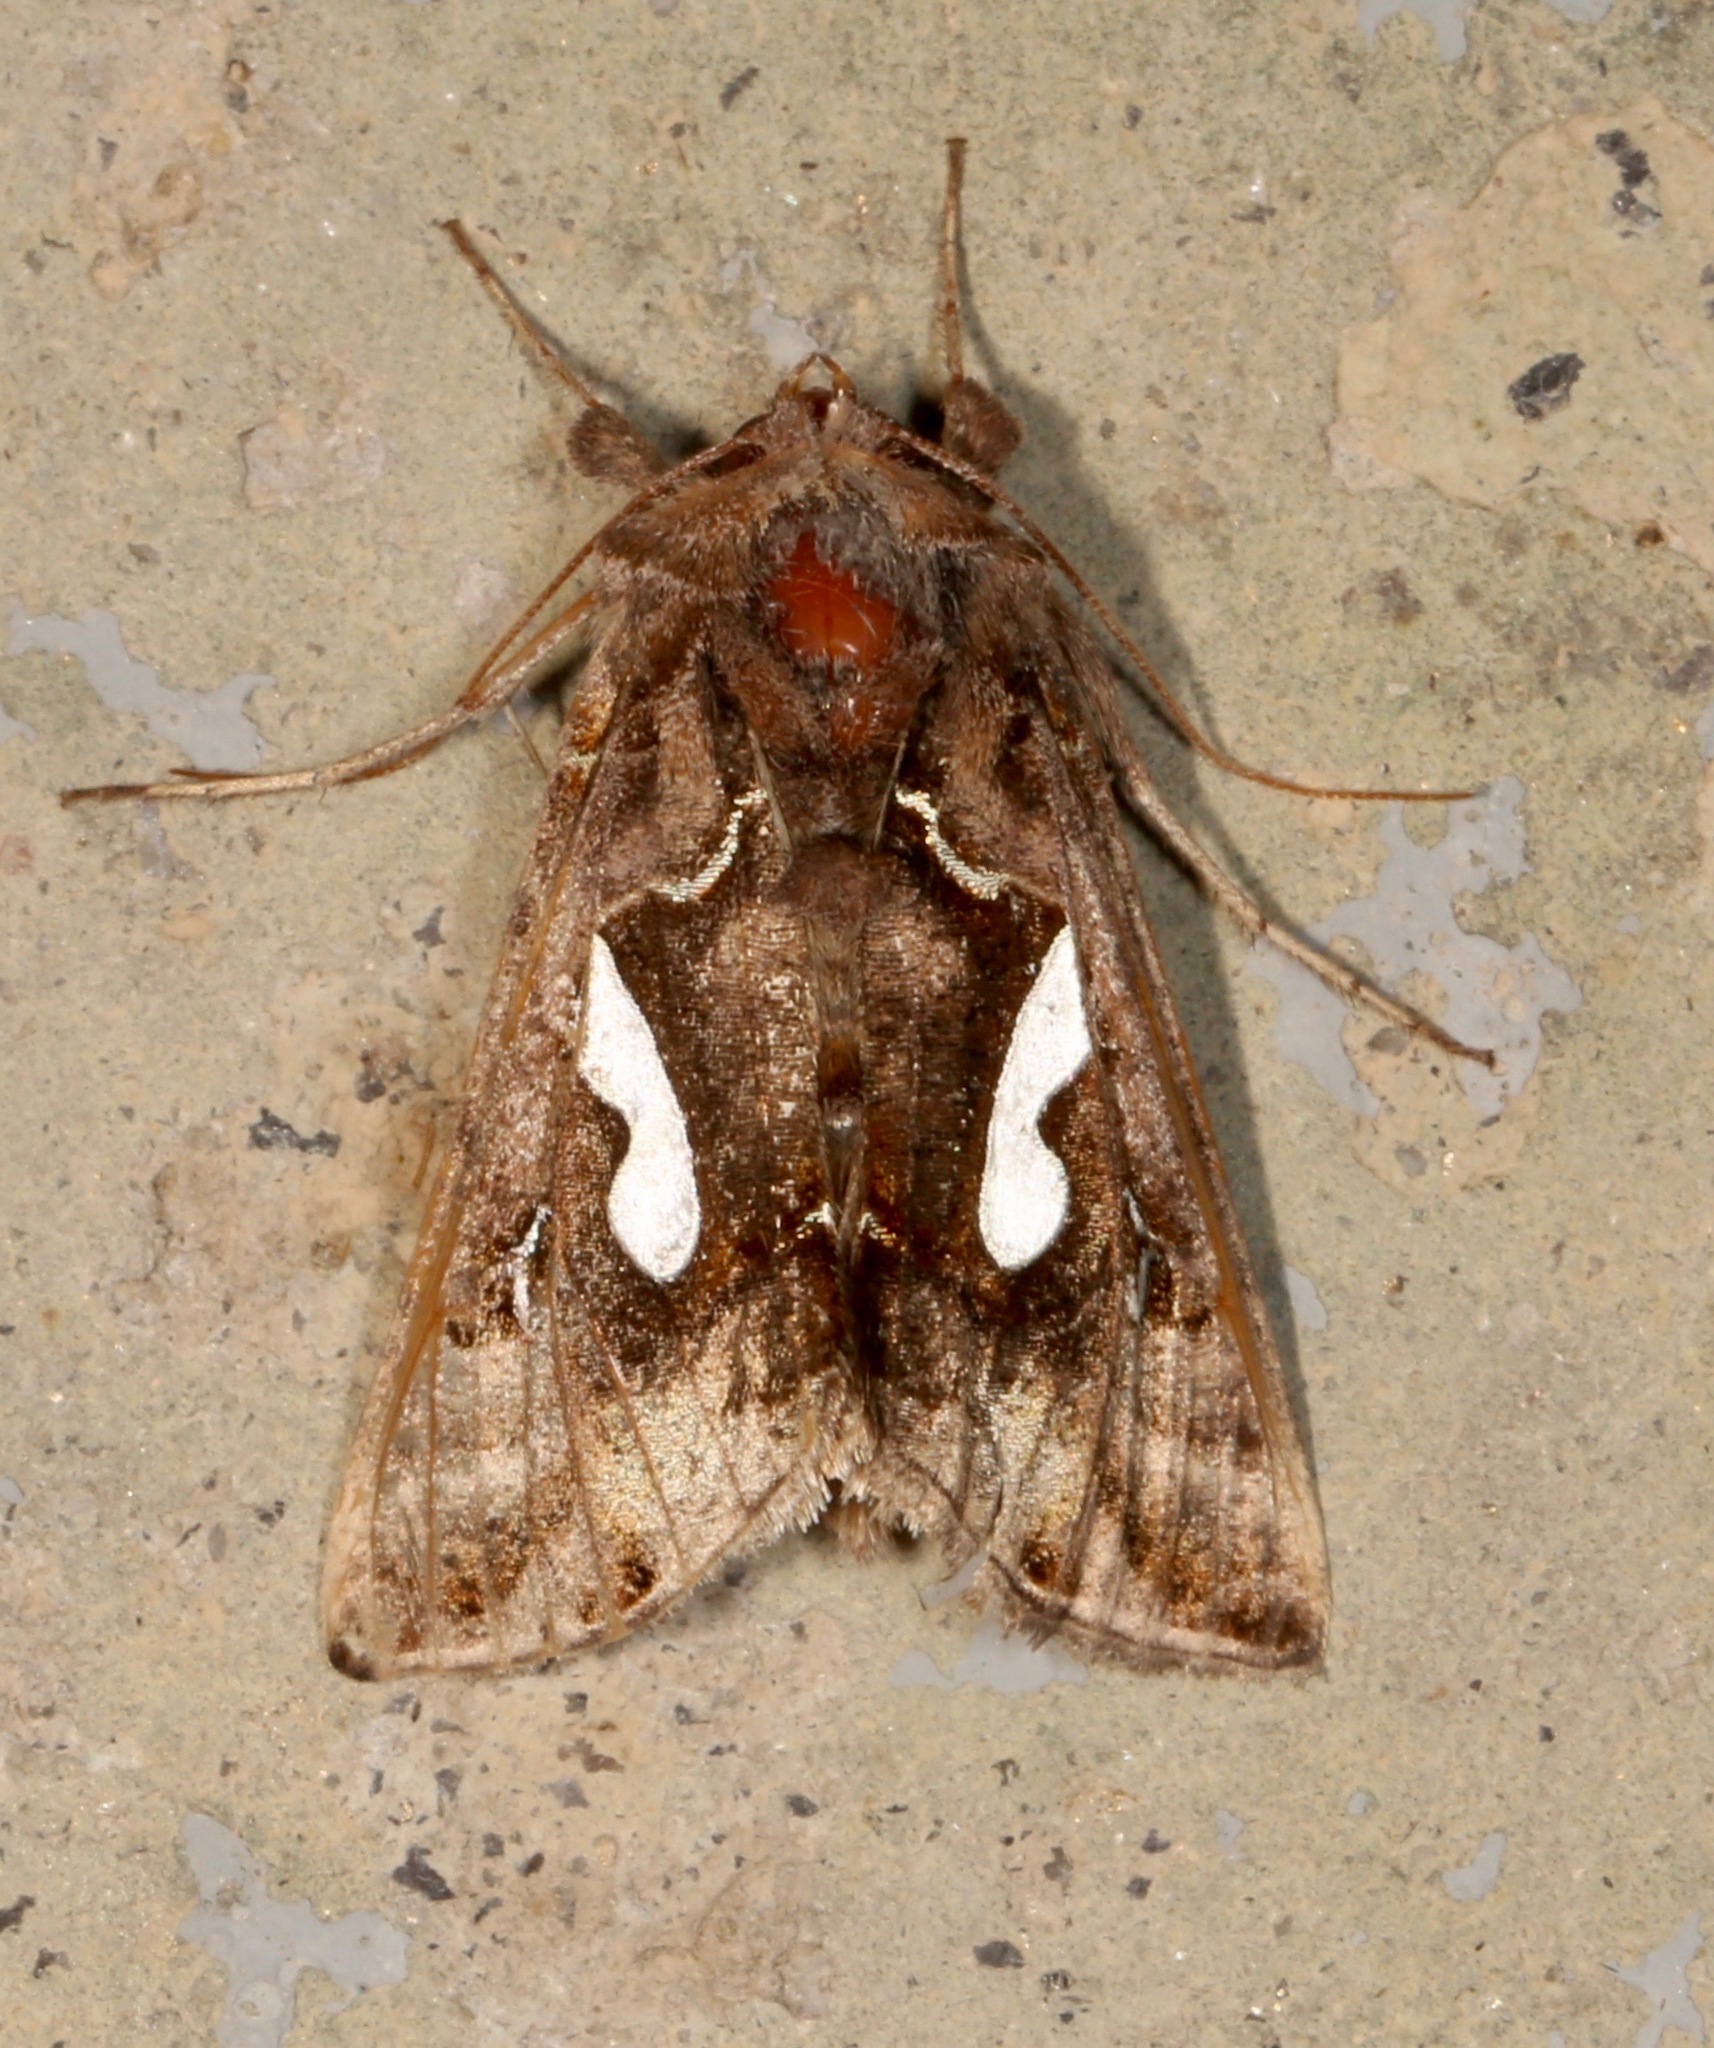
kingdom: Animalia
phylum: Arthropoda
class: Insecta
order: Lepidoptera
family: Noctuidae
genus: Megalographa
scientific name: Megalographa biloba
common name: Cutworm
